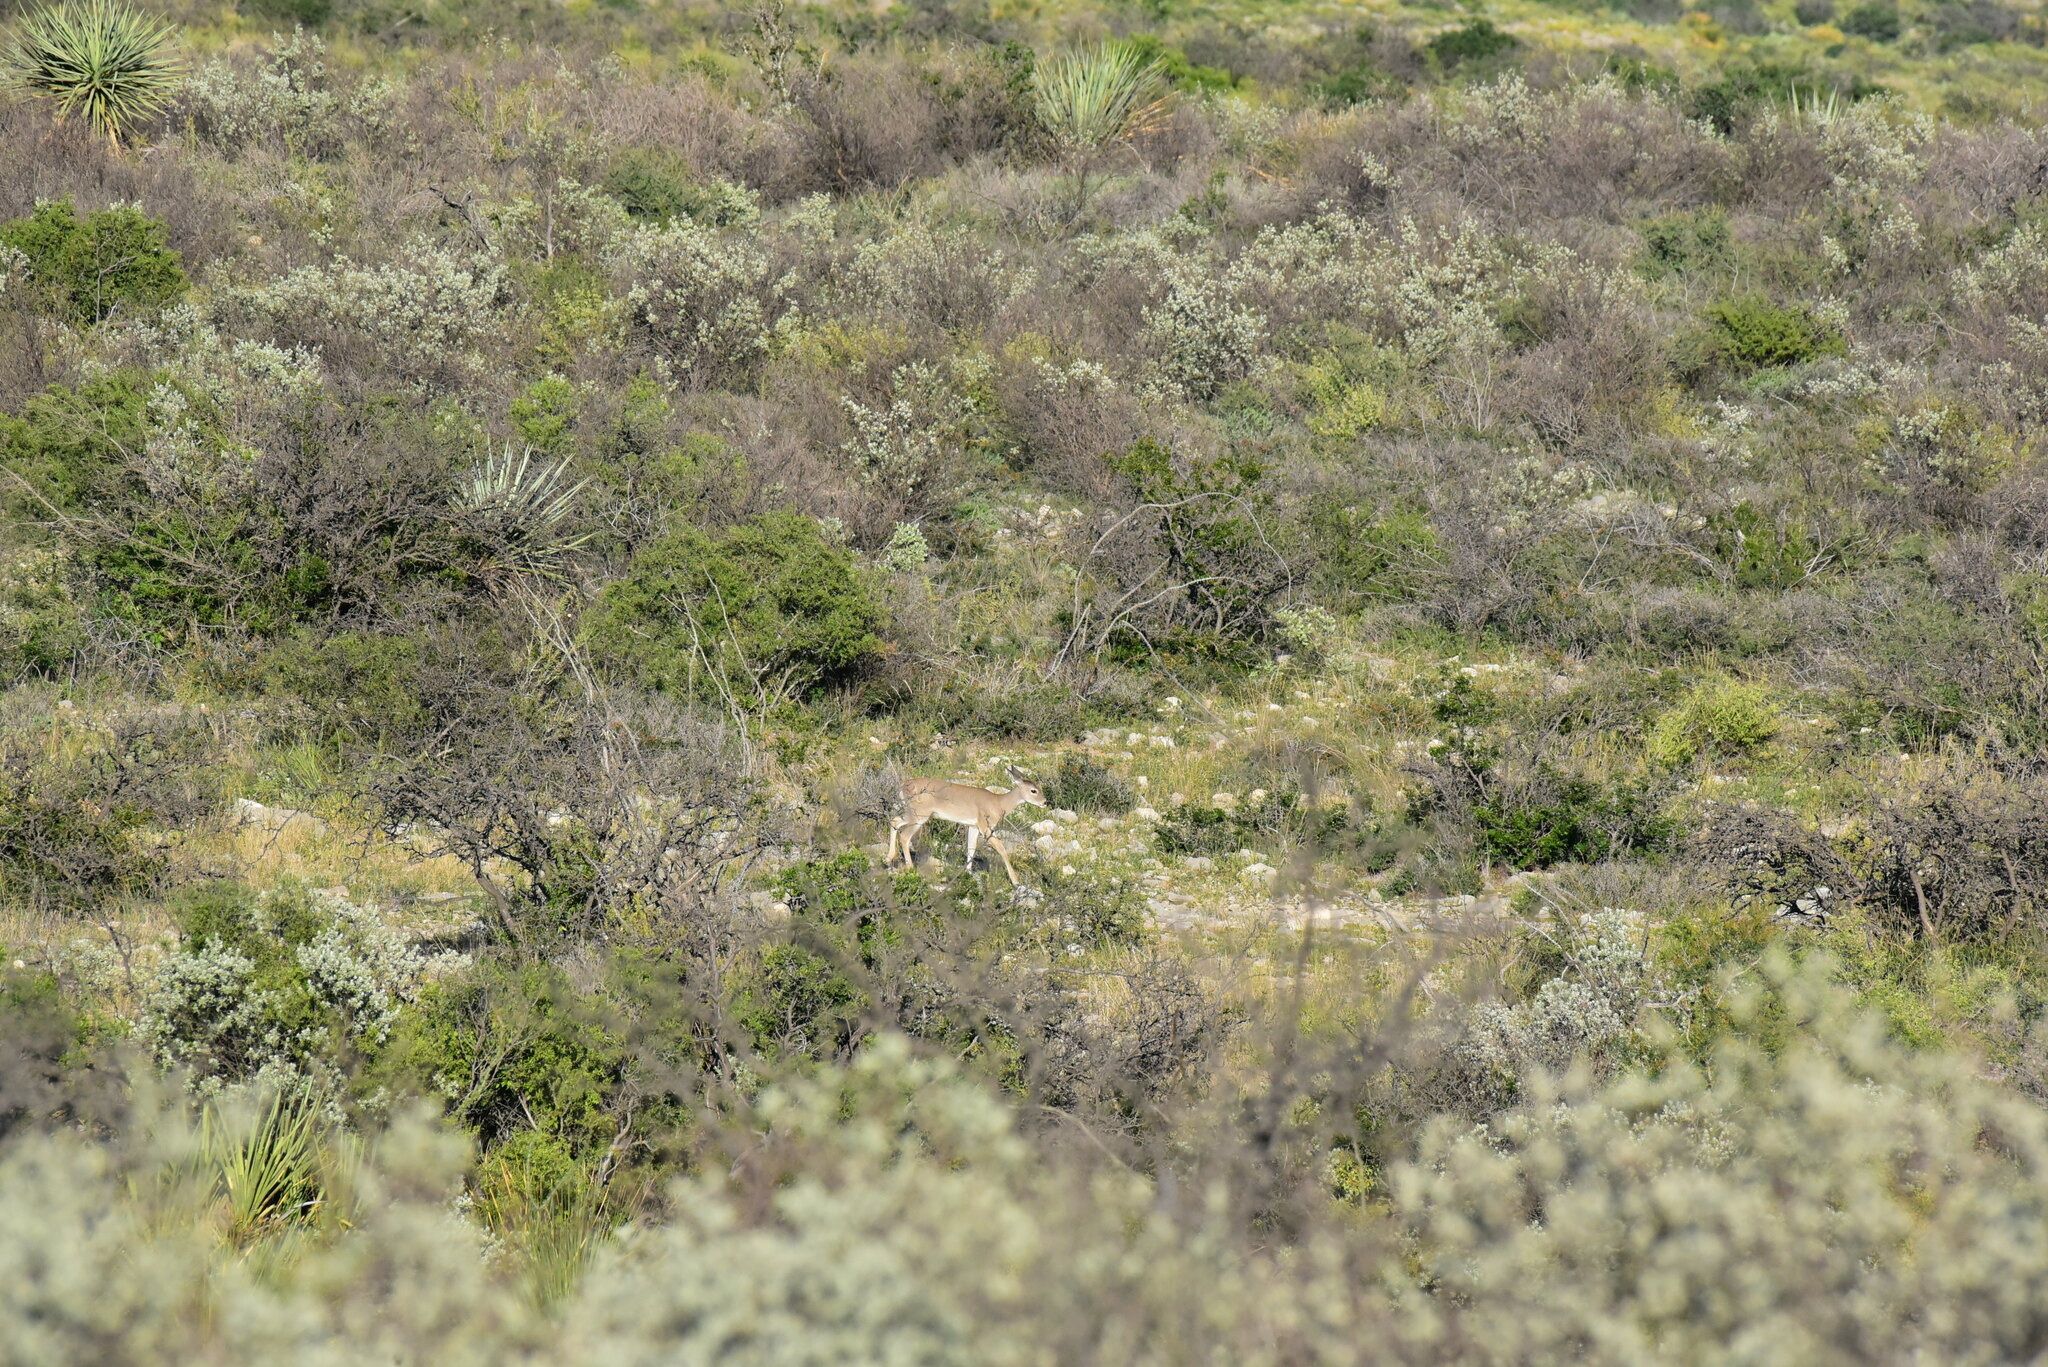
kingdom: Animalia
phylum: Chordata
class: Mammalia
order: Artiodactyla
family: Cervidae
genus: Odocoileus
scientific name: Odocoileus virginianus
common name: White-tailed deer
